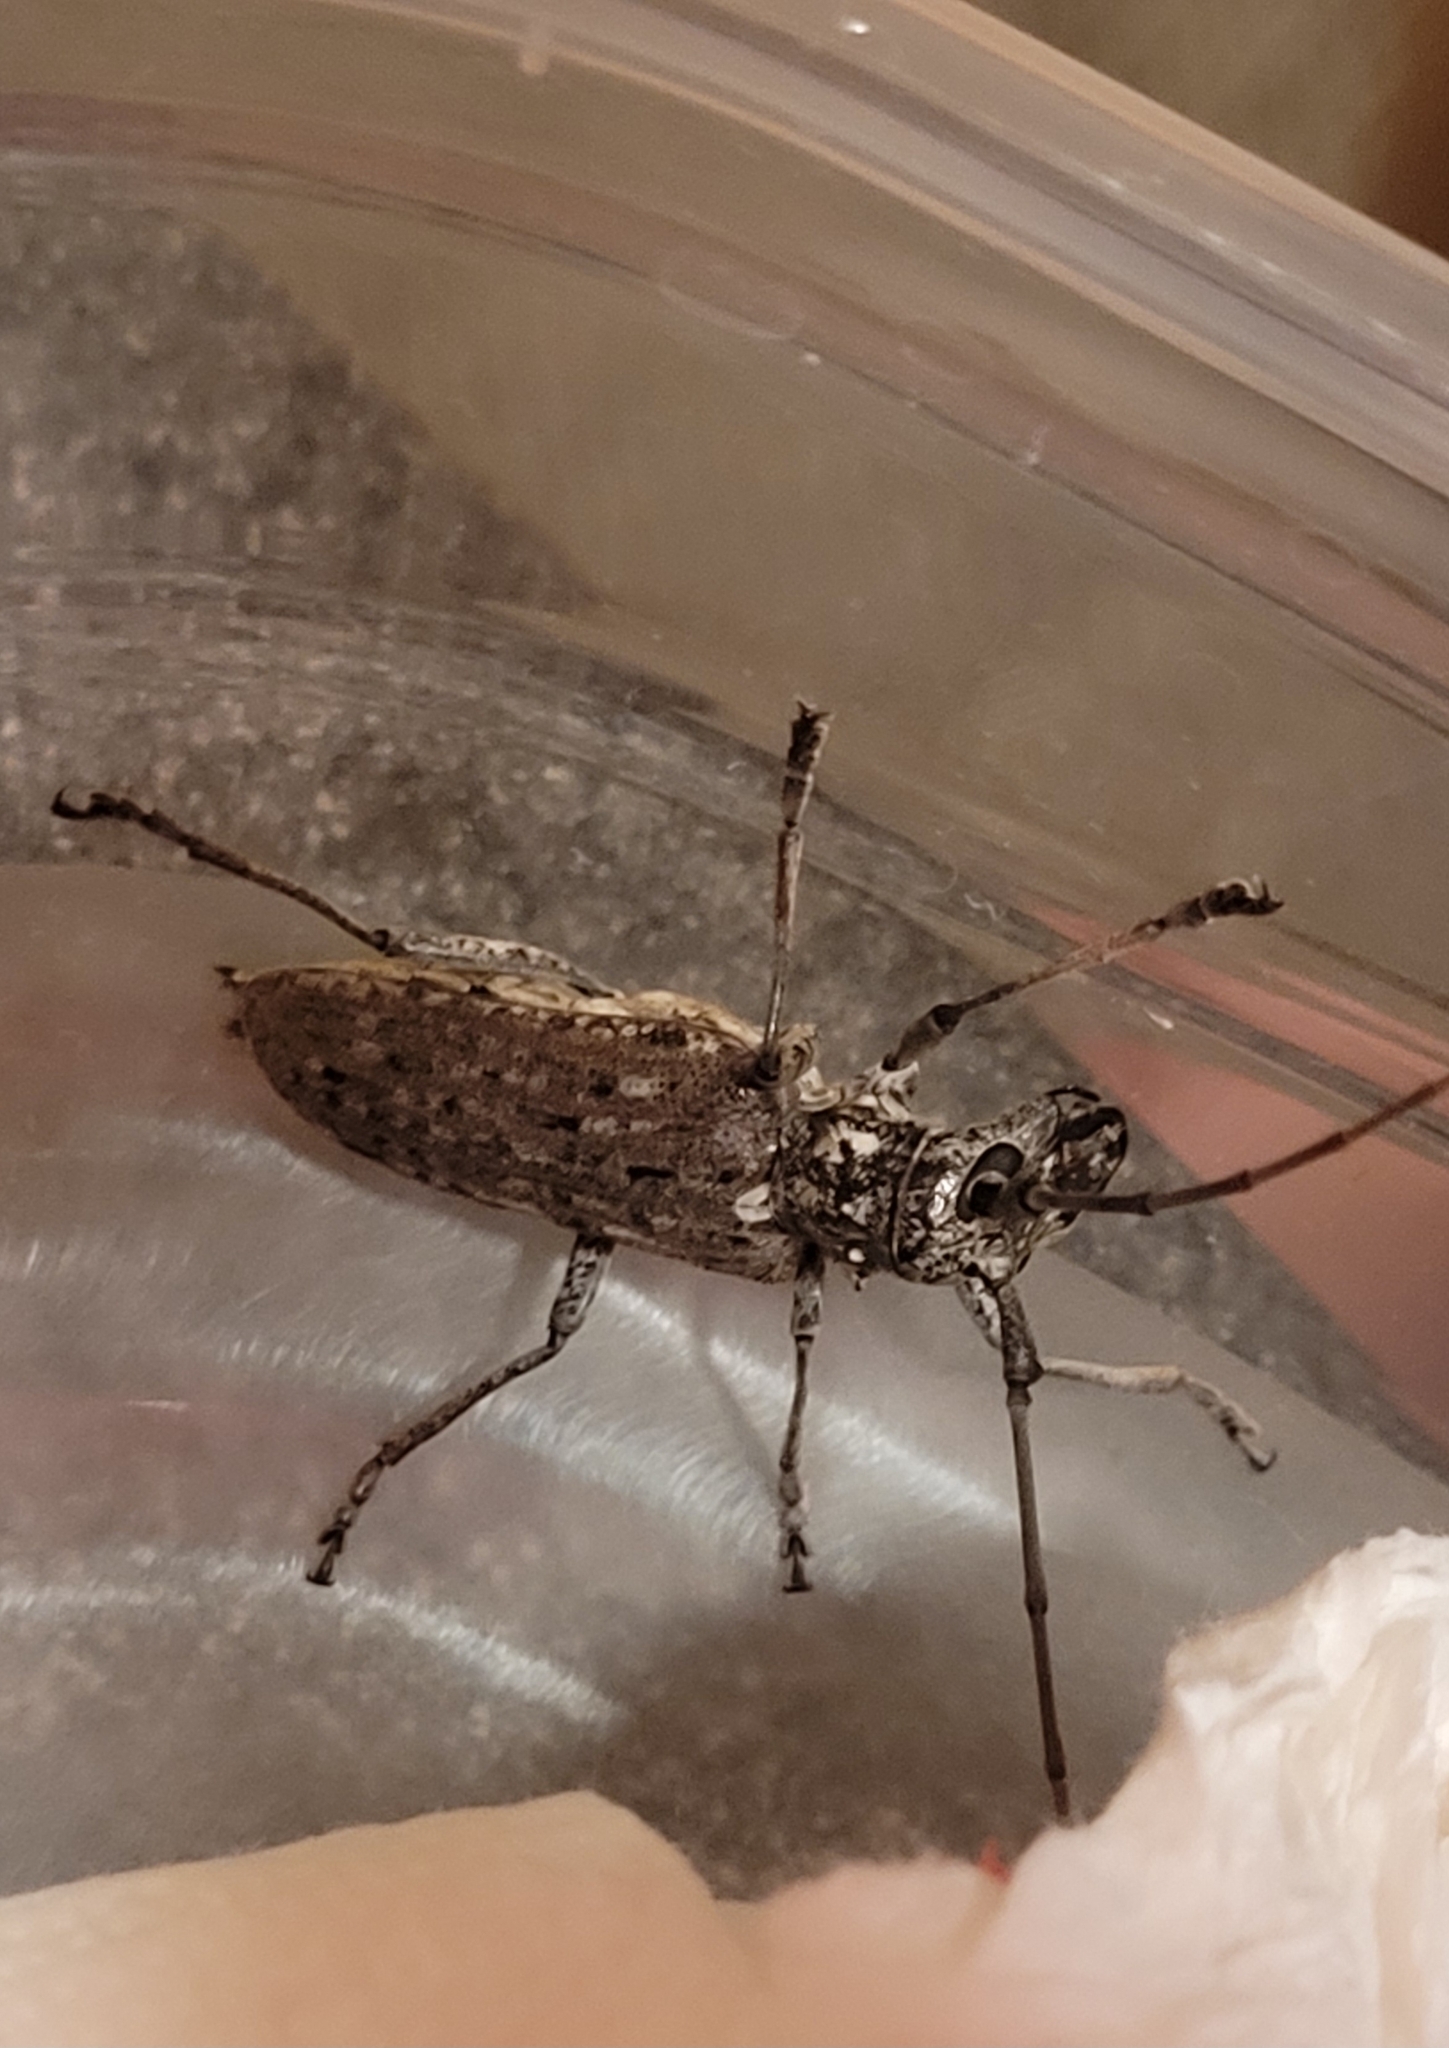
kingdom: Animalia
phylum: Arthropoda
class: Insecta
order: Coleoptera
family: Cerambycidae
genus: Monochamus
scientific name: Monochamus notatus
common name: Northeastern pine sawyer beetle
